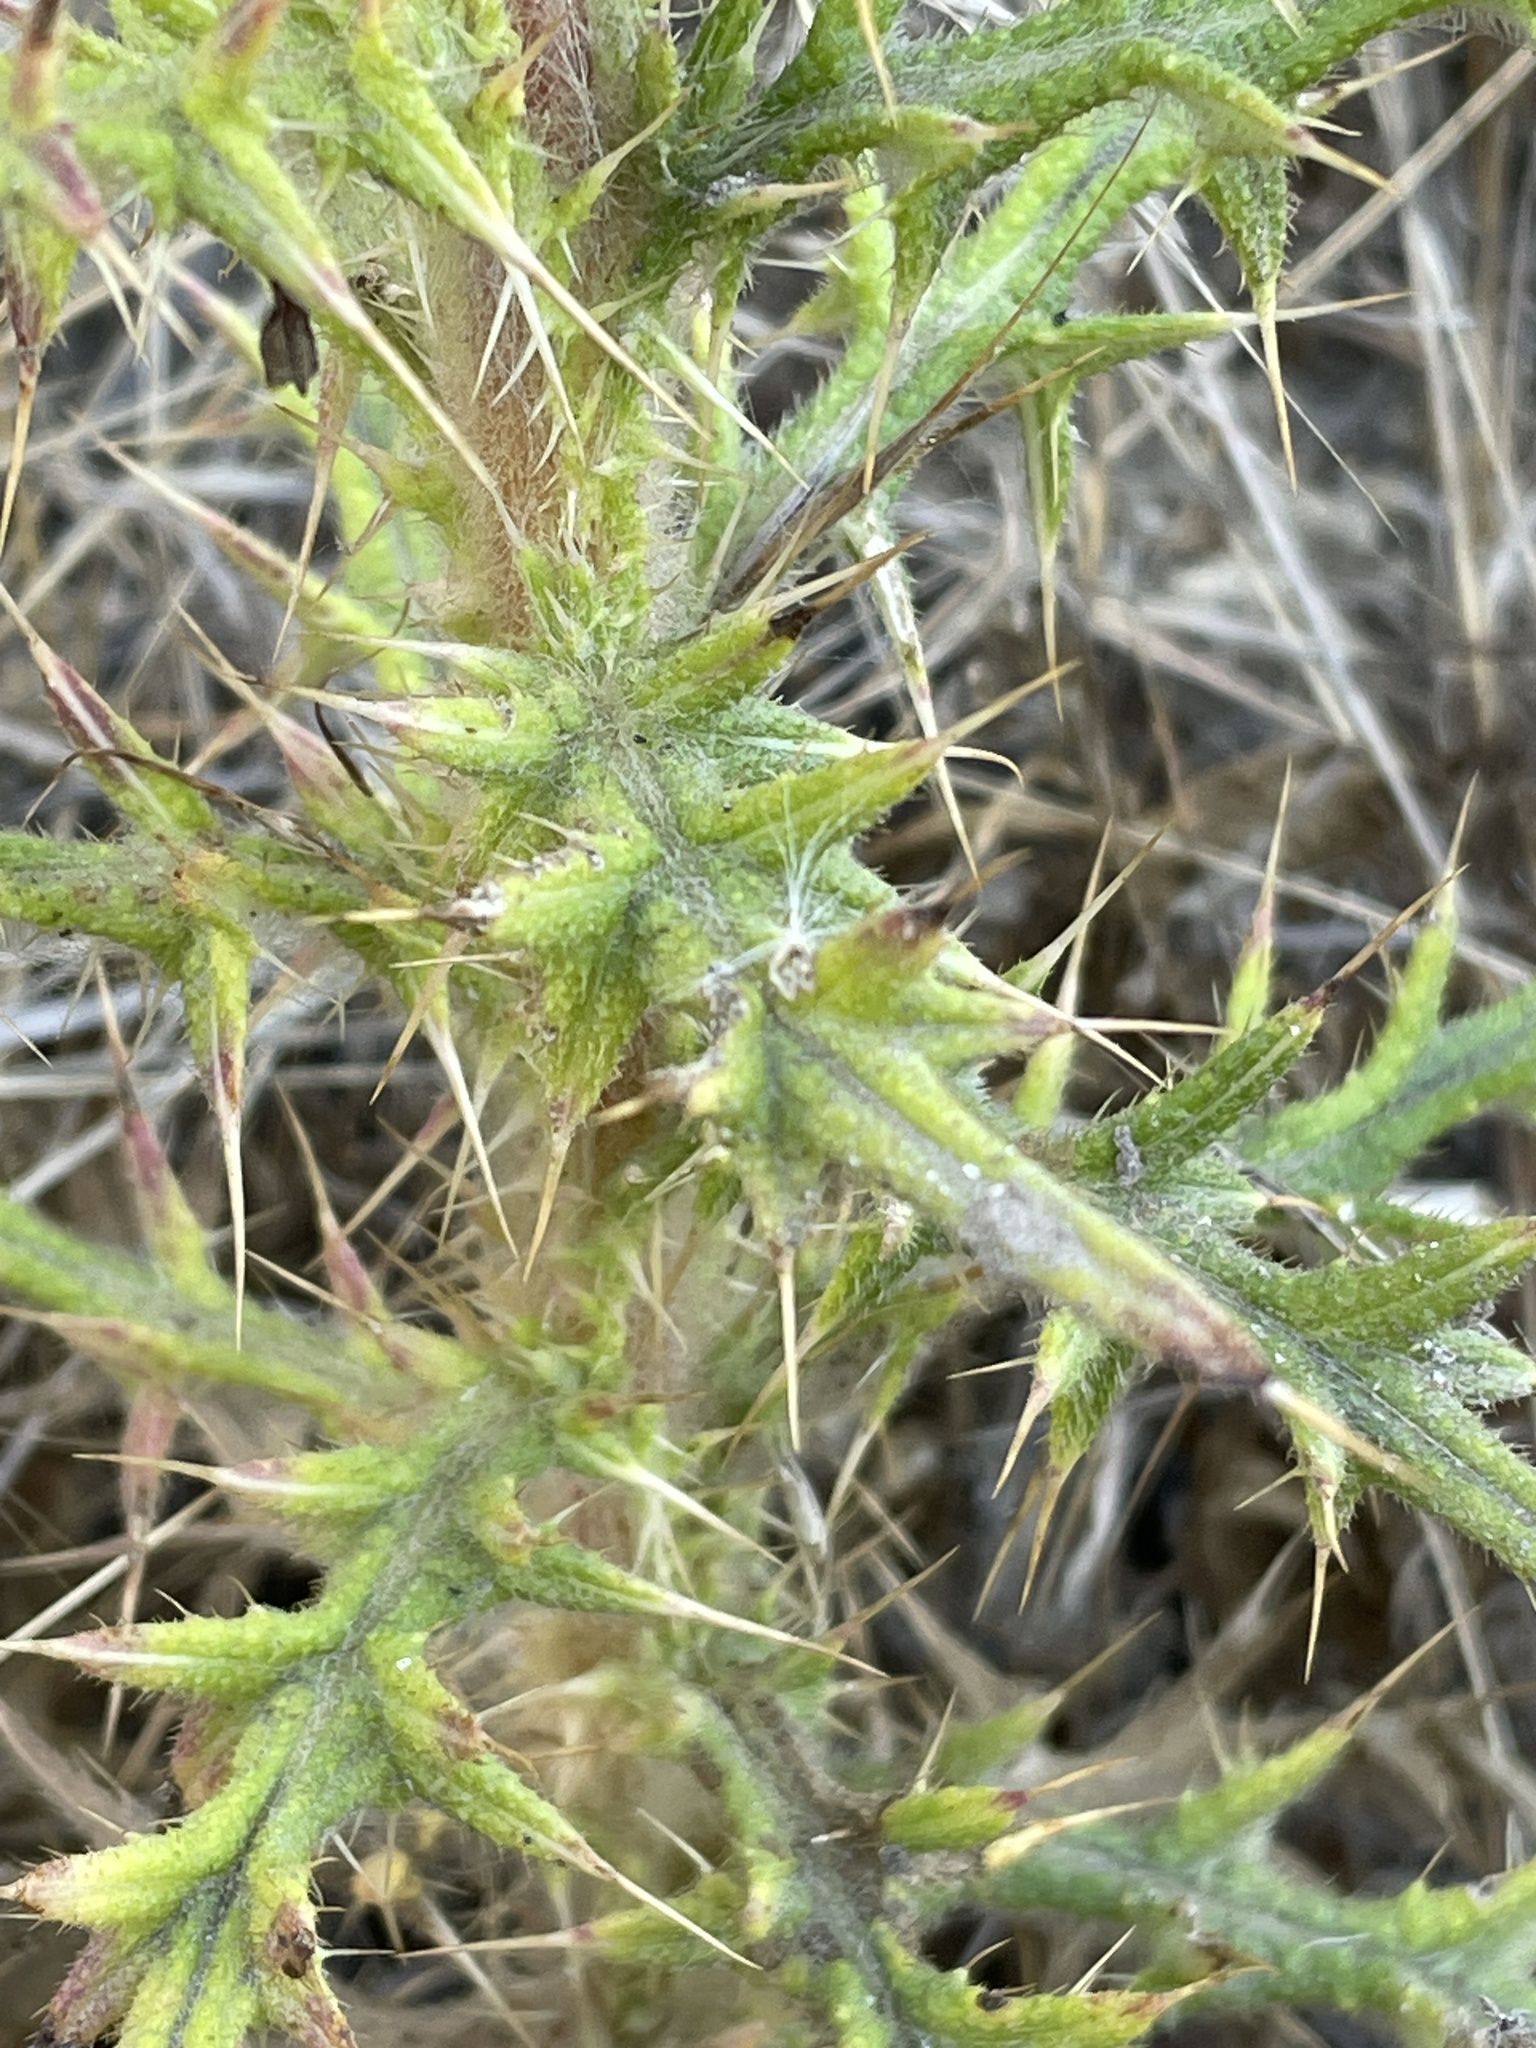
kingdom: Plantae
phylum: Tracheophyta
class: Magnoliopsida
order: Asterales
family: Asteraceae
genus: Cirsium
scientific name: Cirsium vulgare
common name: Bull thistle
